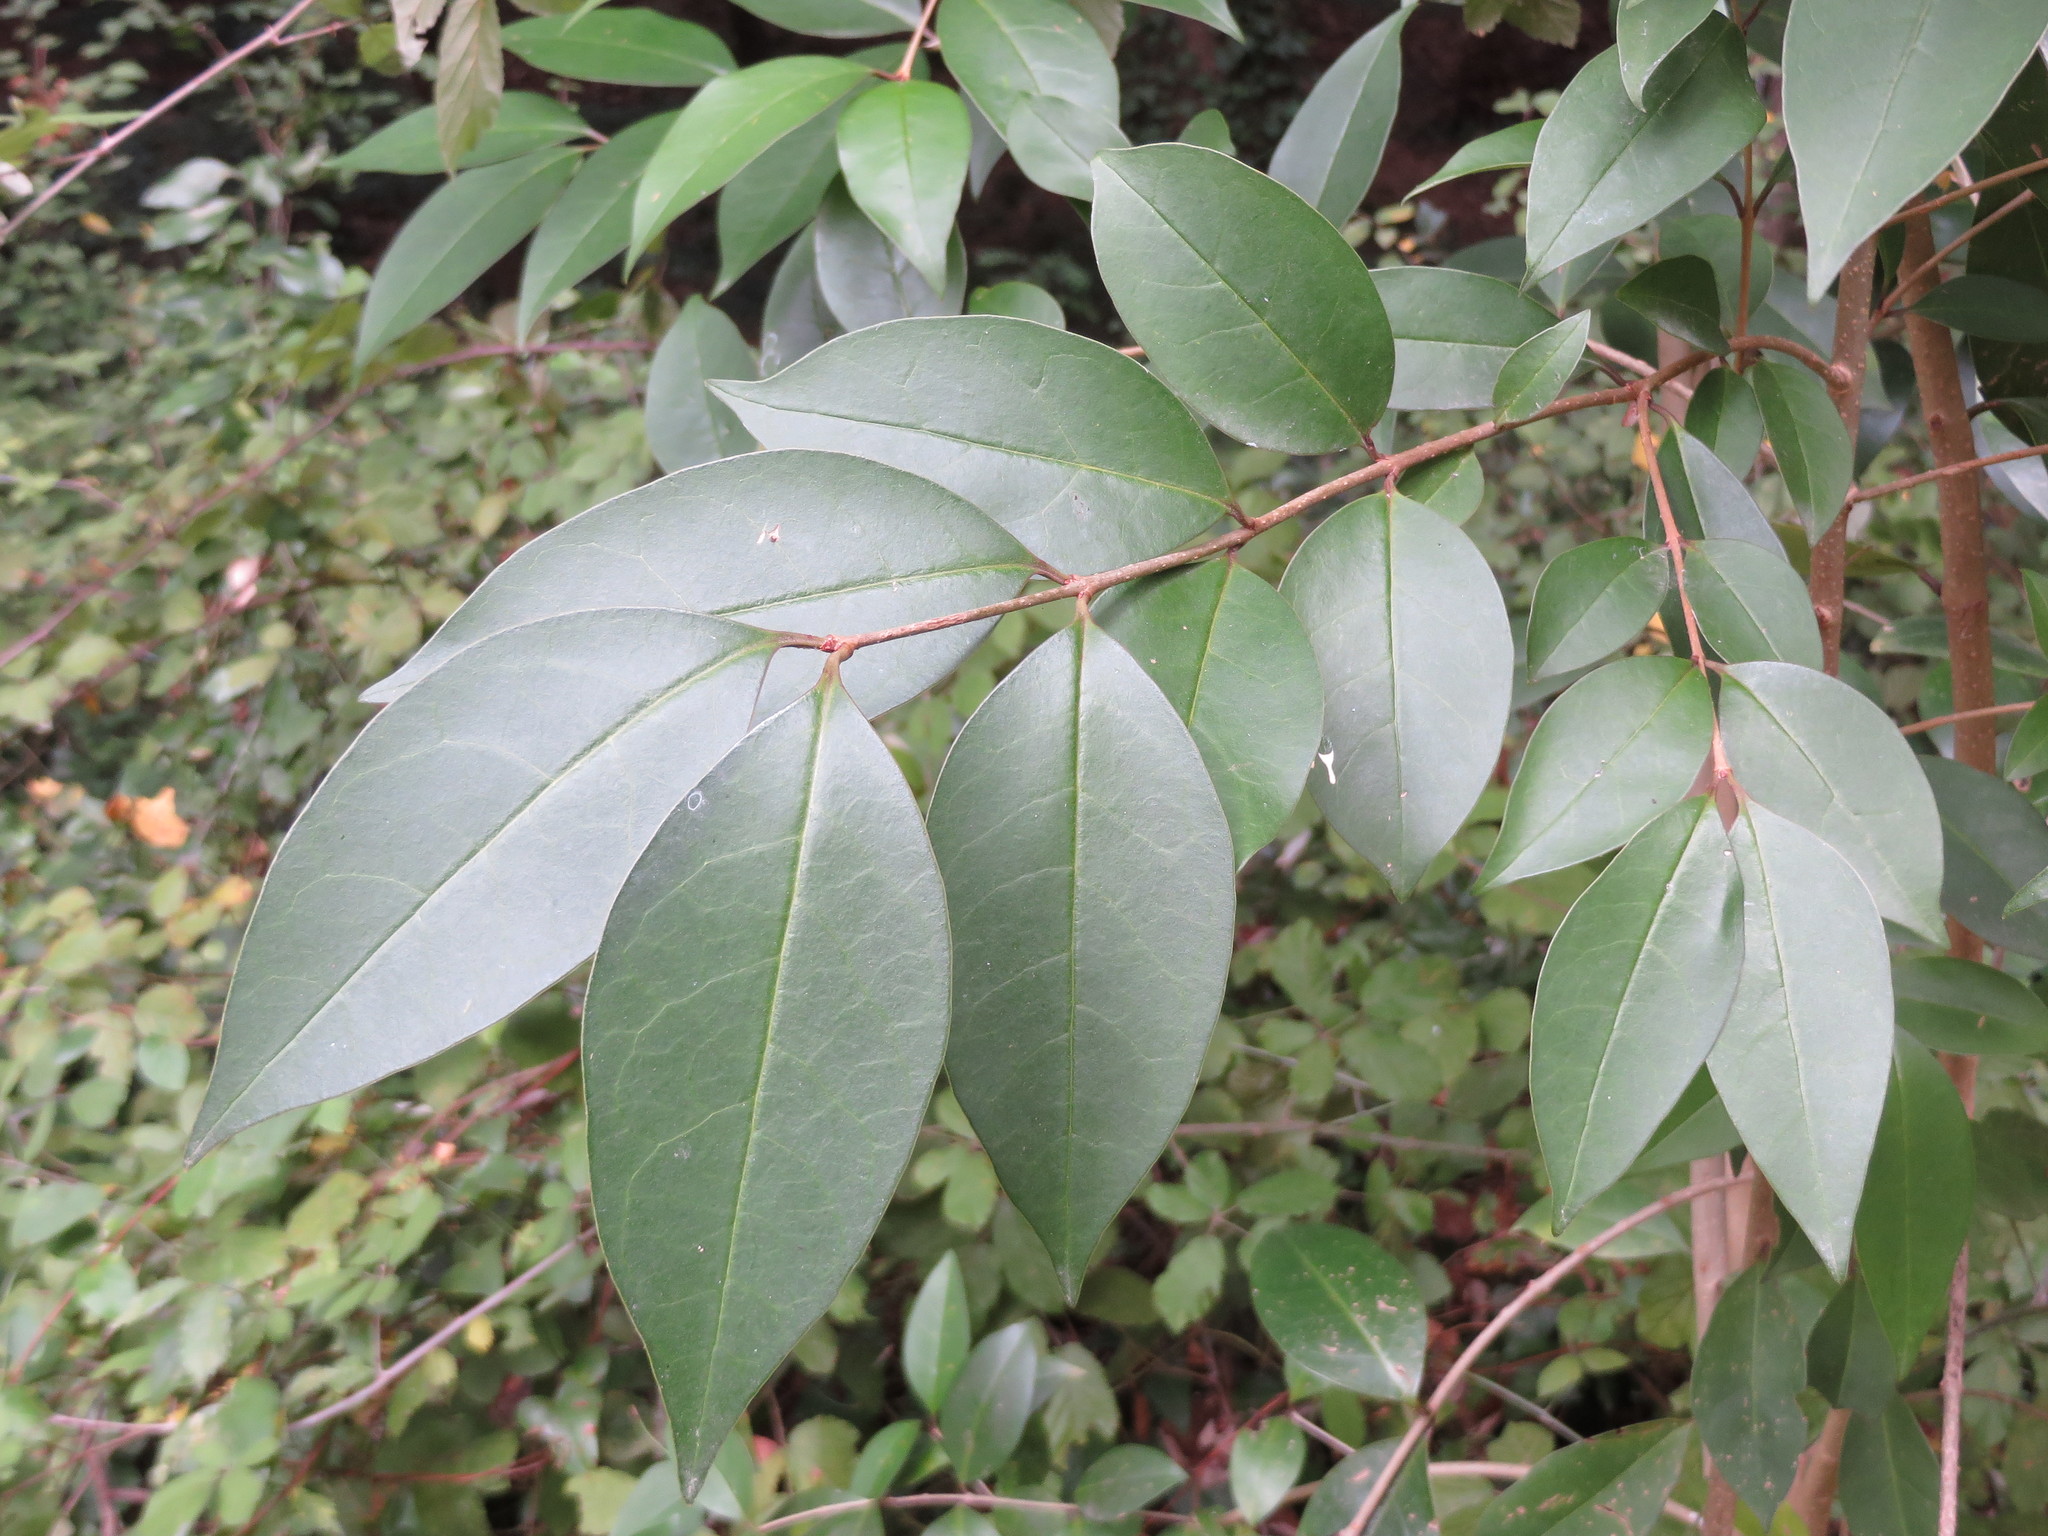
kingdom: Plantae
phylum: Tracheophyta
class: Magnoliopsida
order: Lamiales
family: Oleaceae
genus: Ligustrum
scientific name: Ligustrum lucidum
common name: Glossy privet
